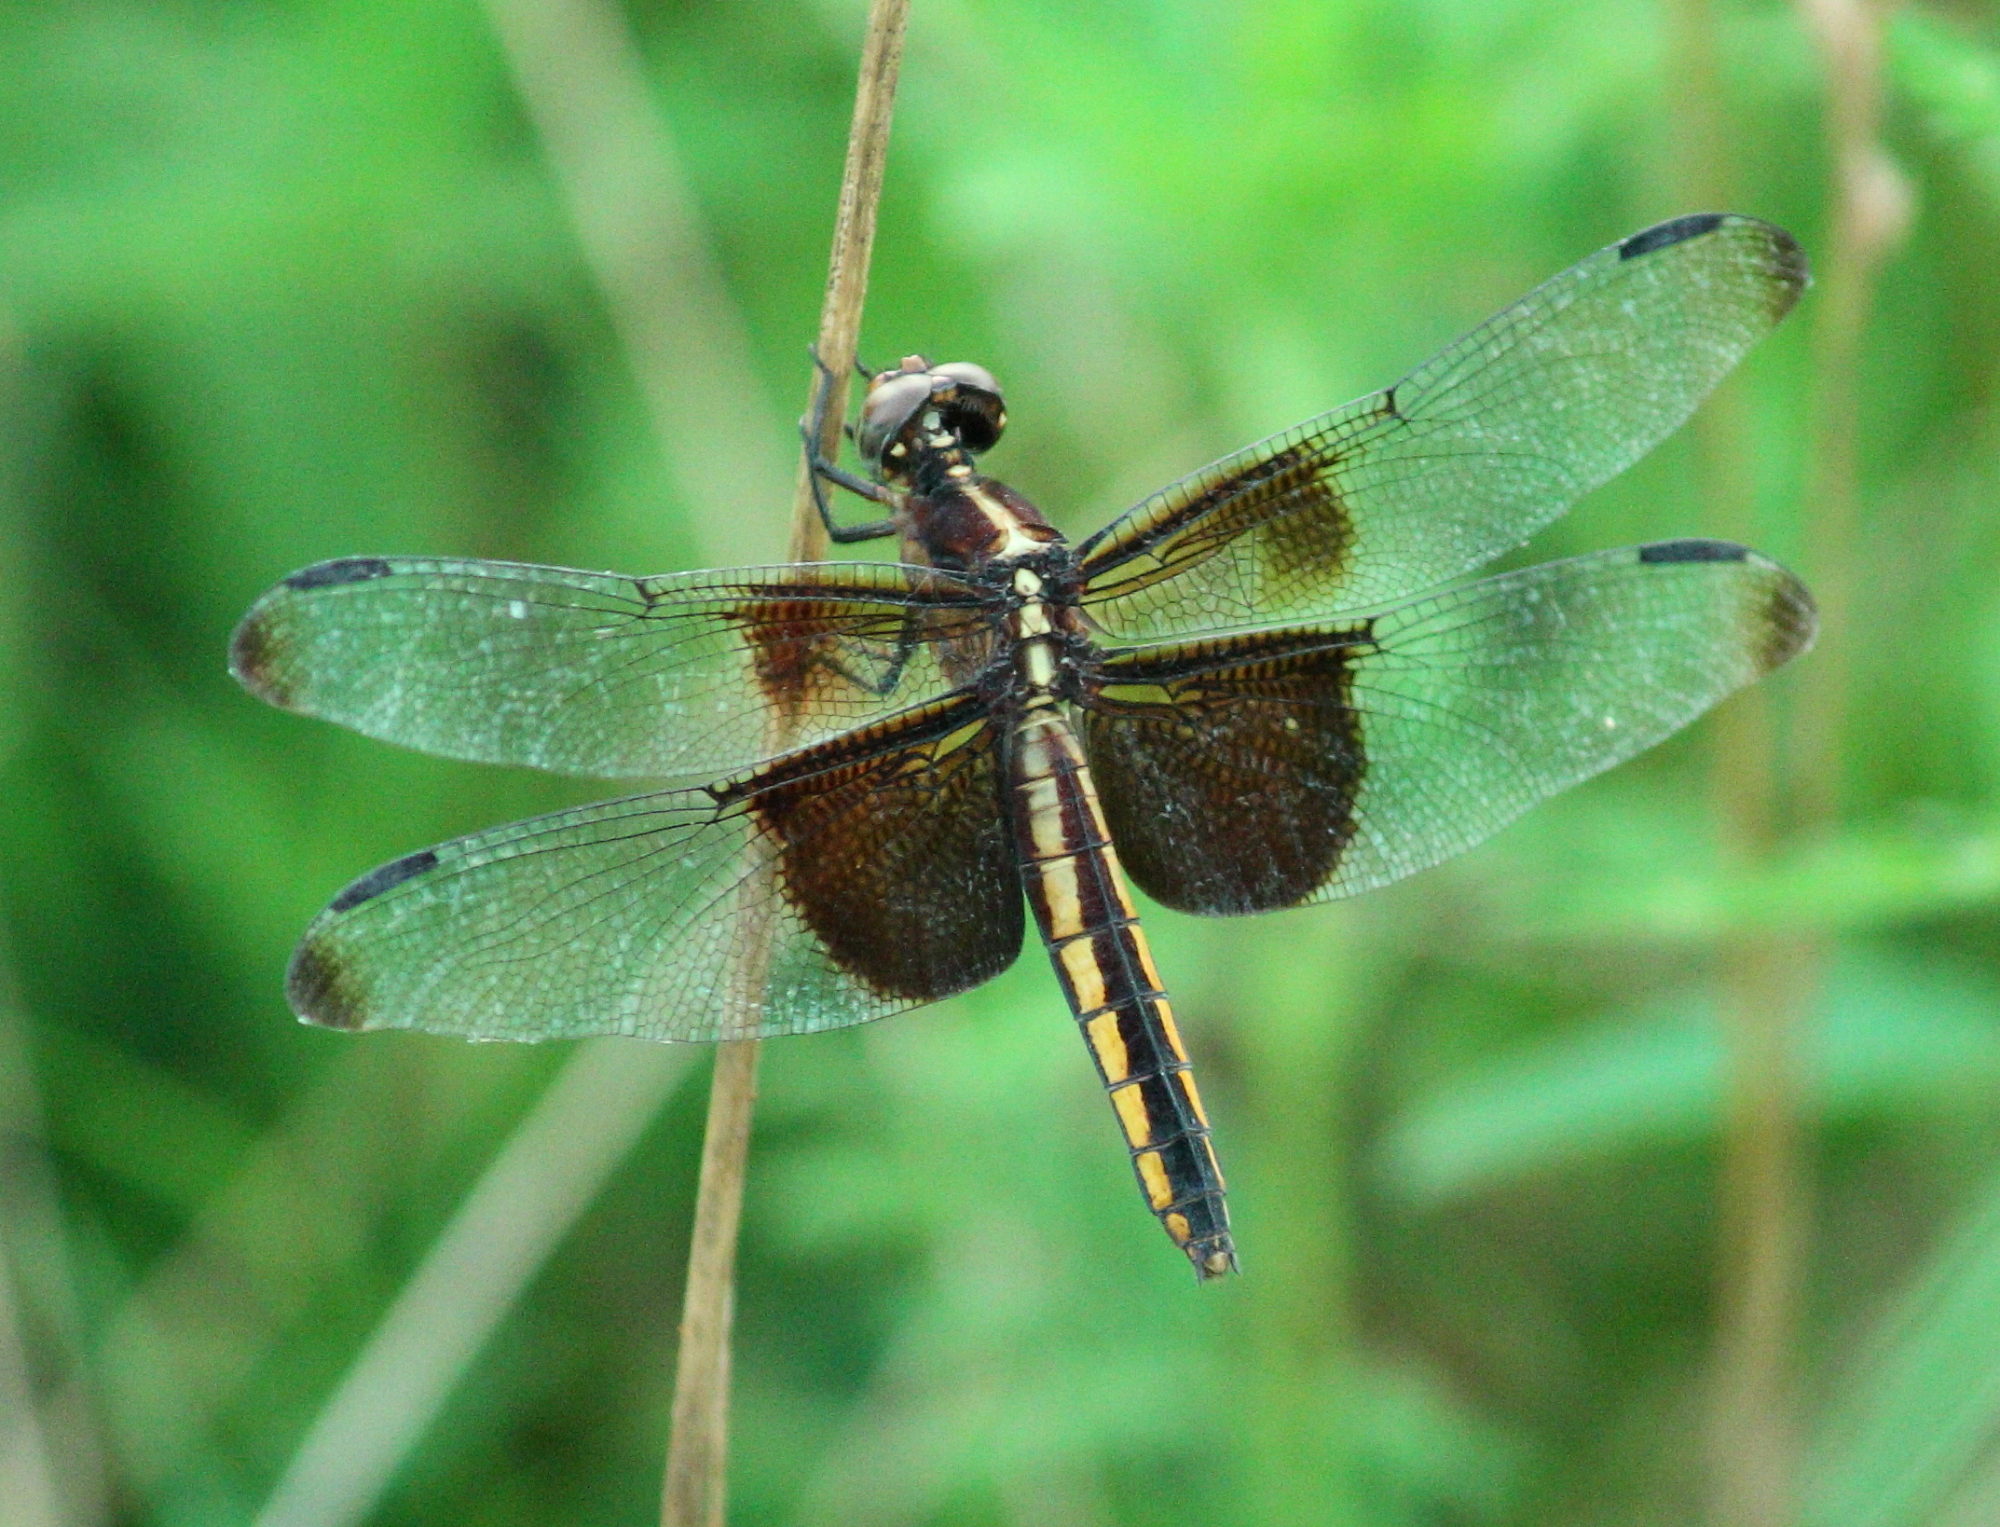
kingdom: Animalia
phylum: Arthropoda
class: Insecta
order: Odonata
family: Libellulidae
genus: Libellula
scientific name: Libellula luctuosa
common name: Widow skimmer
